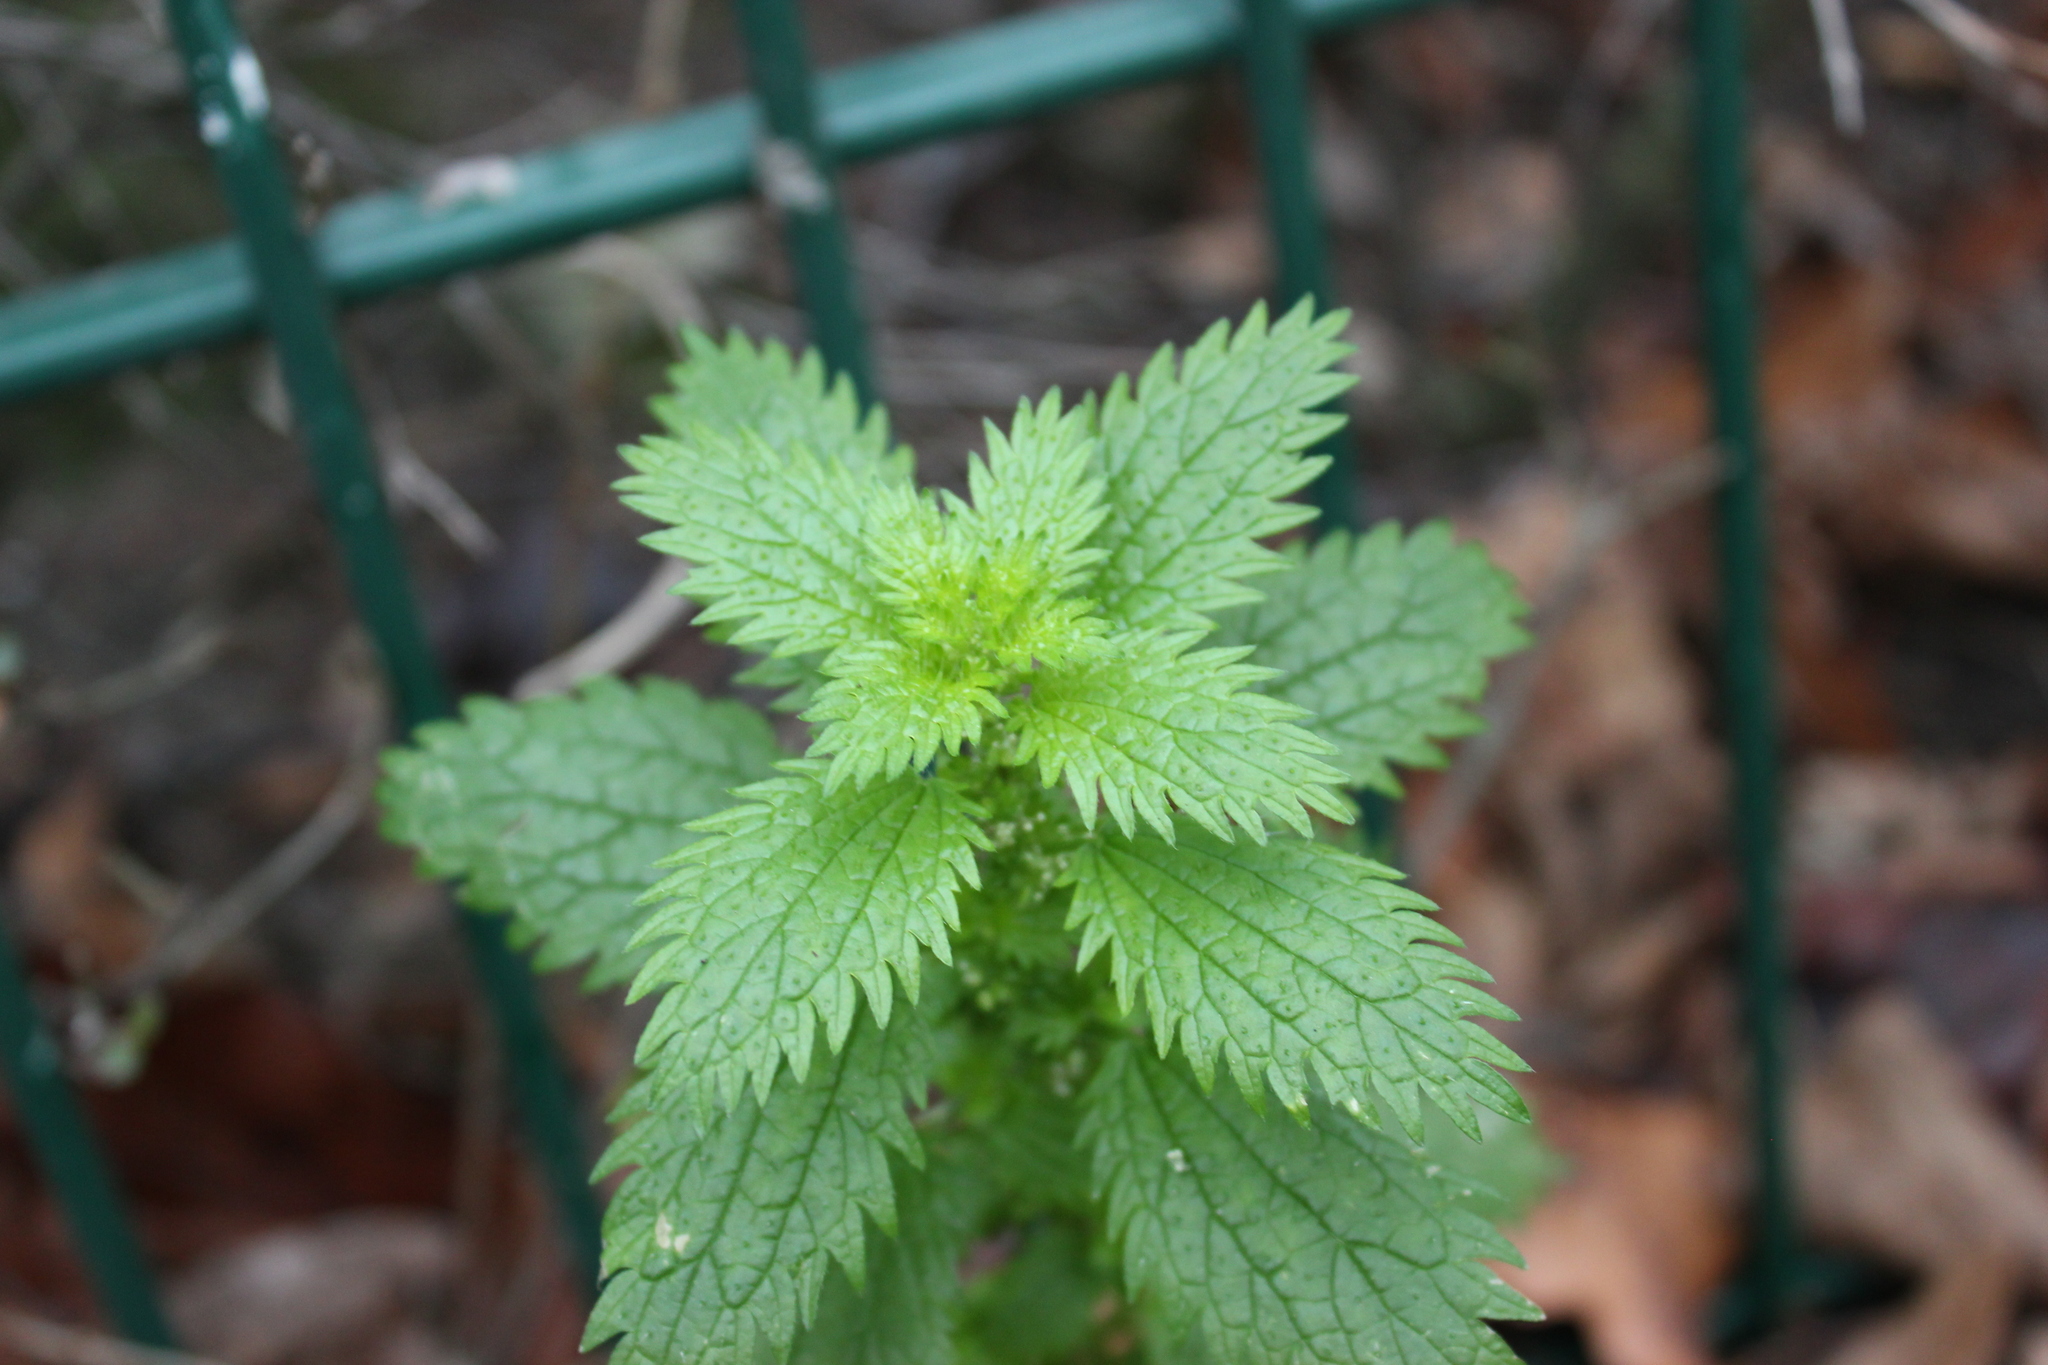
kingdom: Plantae
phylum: Tracheophyta
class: Magnoliopsida
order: Rosales
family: Urticaceae
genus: Urtica
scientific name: Urtica urens
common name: Dwarf nettle
